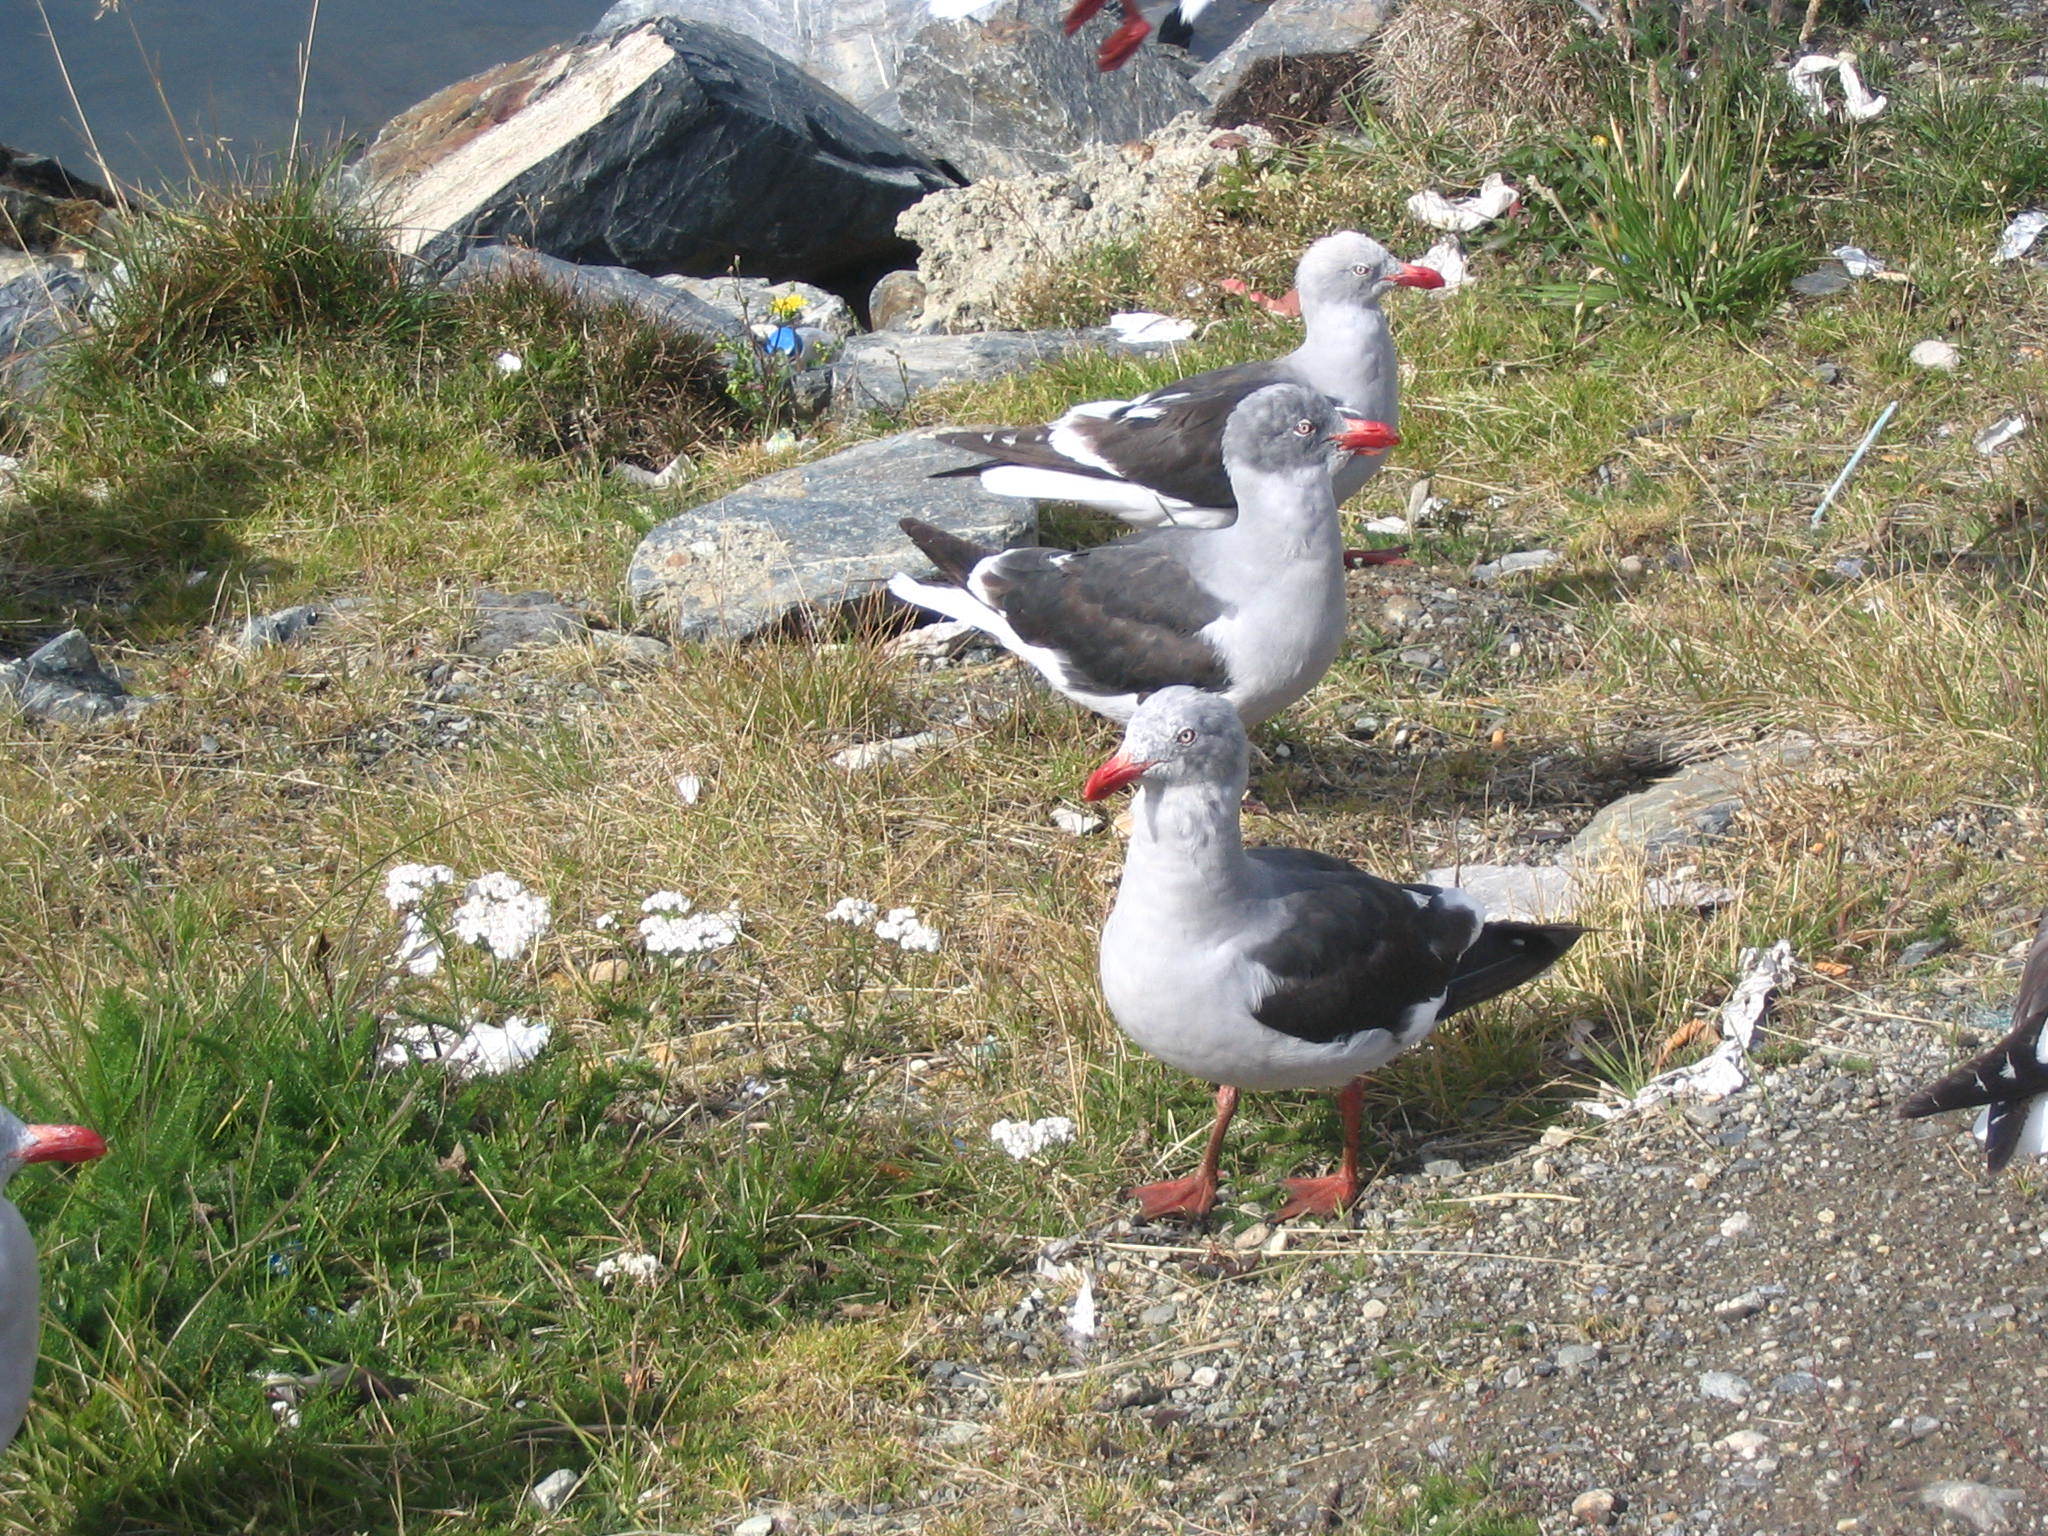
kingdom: Animalia
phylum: Chordata
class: Aves
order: Charadriiformes
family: Laridae
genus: Leucophaeus
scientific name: Leucophaeus scoresbii
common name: Dolphin gull
